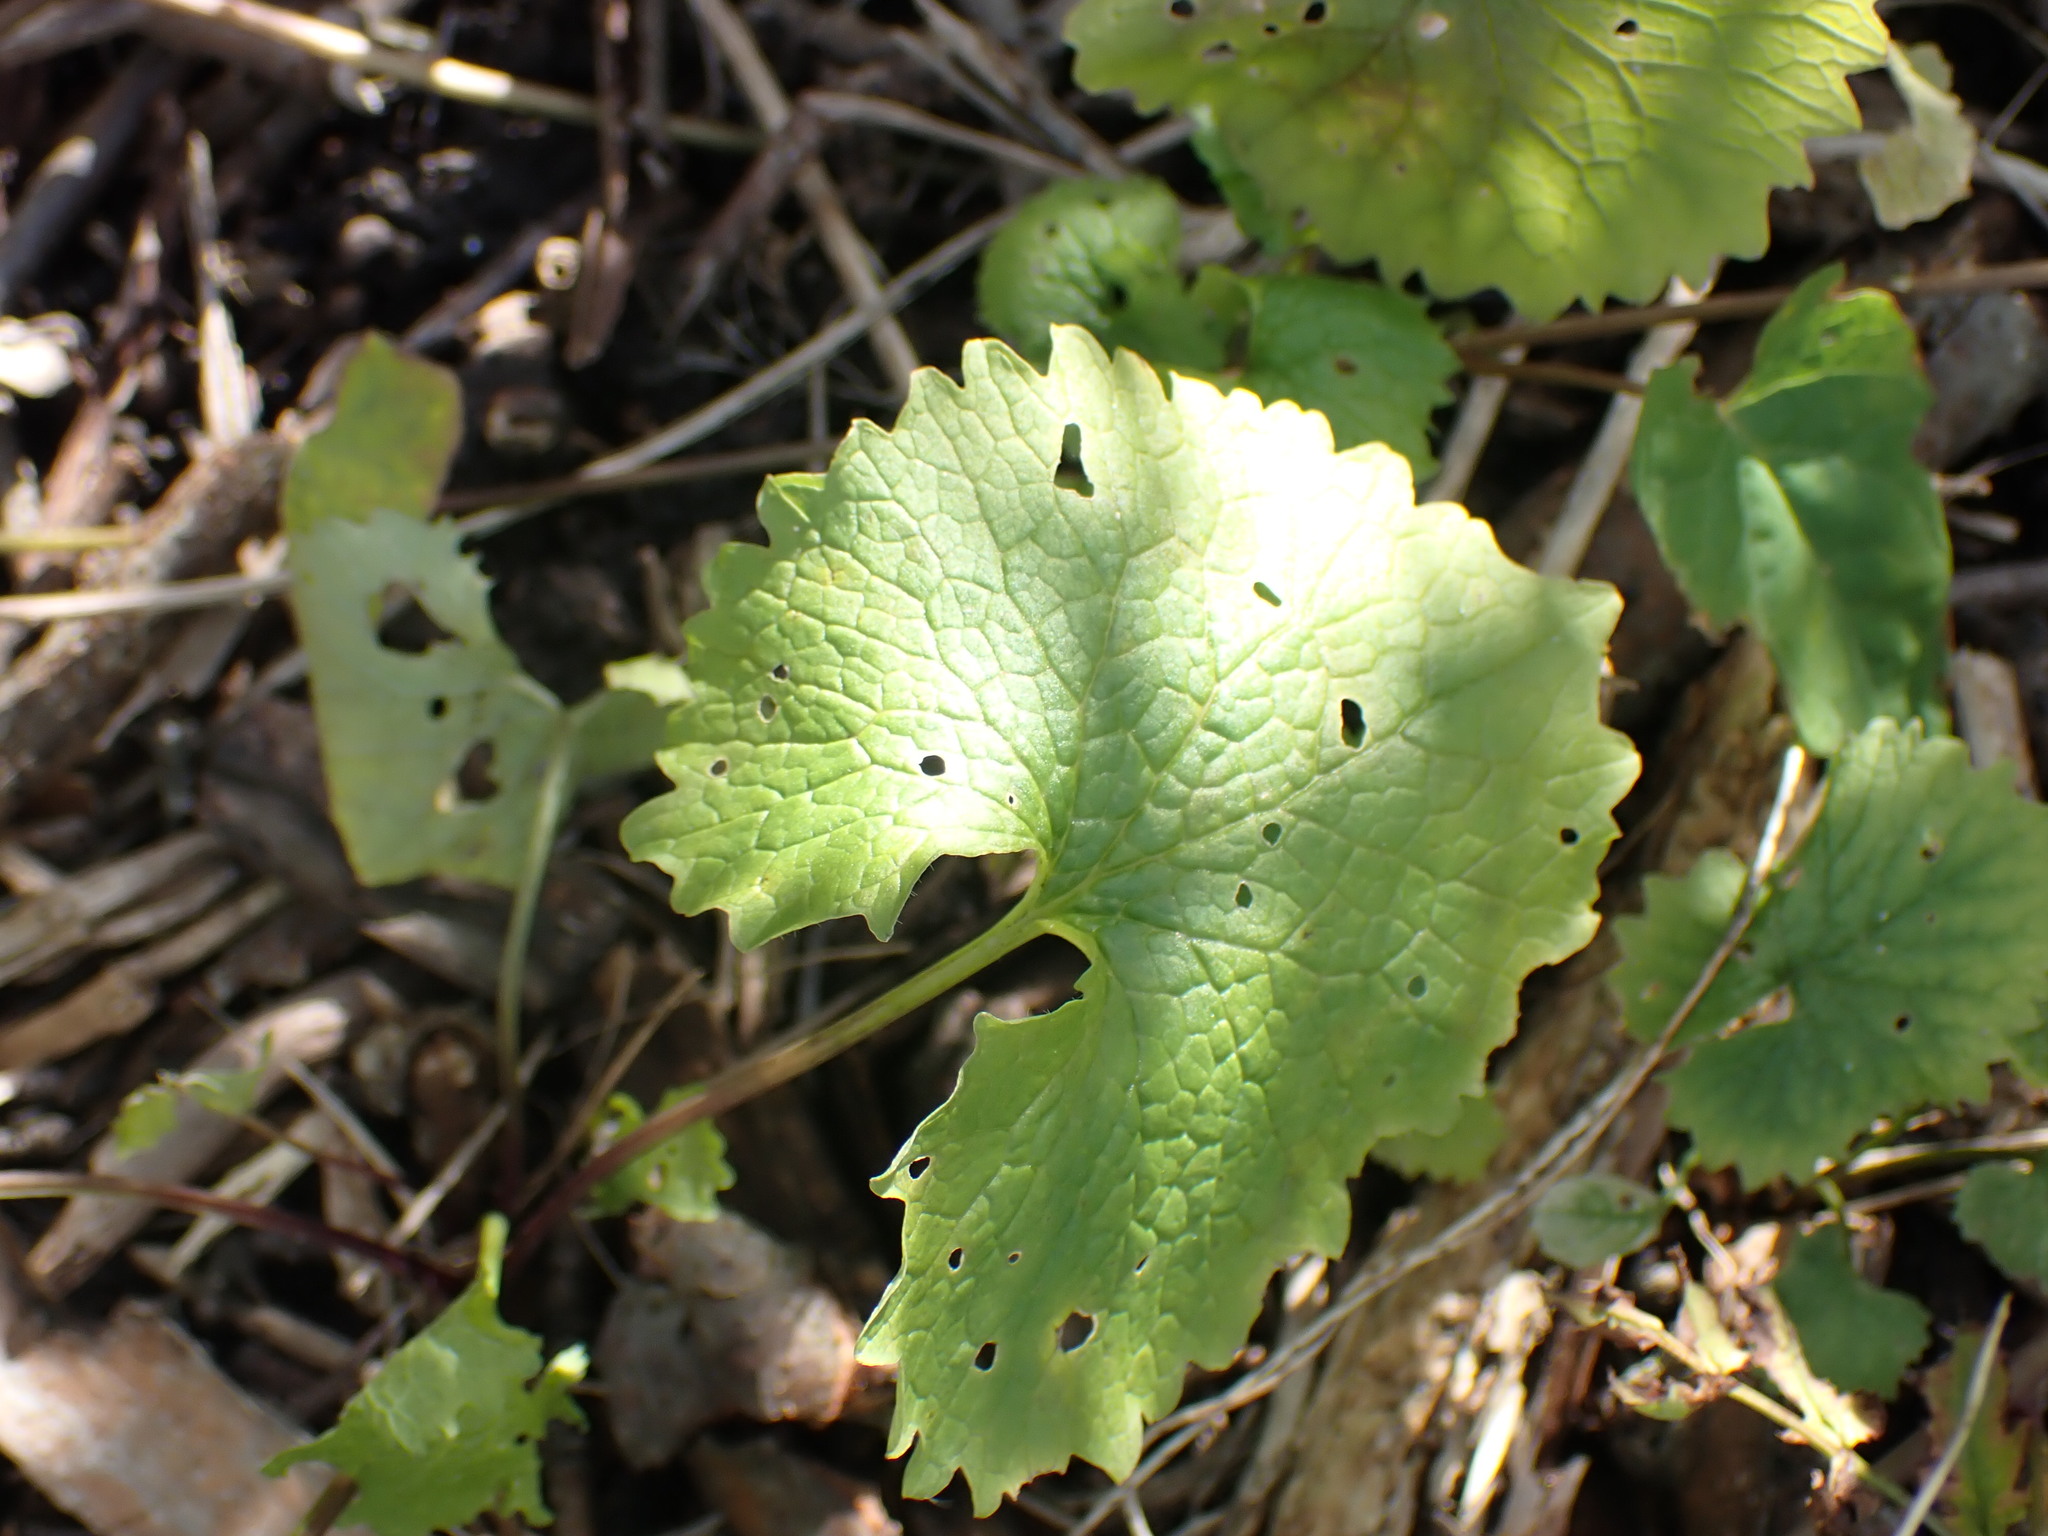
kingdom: Plantae
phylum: Tracheophyta
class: Magnoliopsida
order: Brassicales
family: Brassicaceae
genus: Alliaria
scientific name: Alliaria petiolata
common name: Garlic mustard
